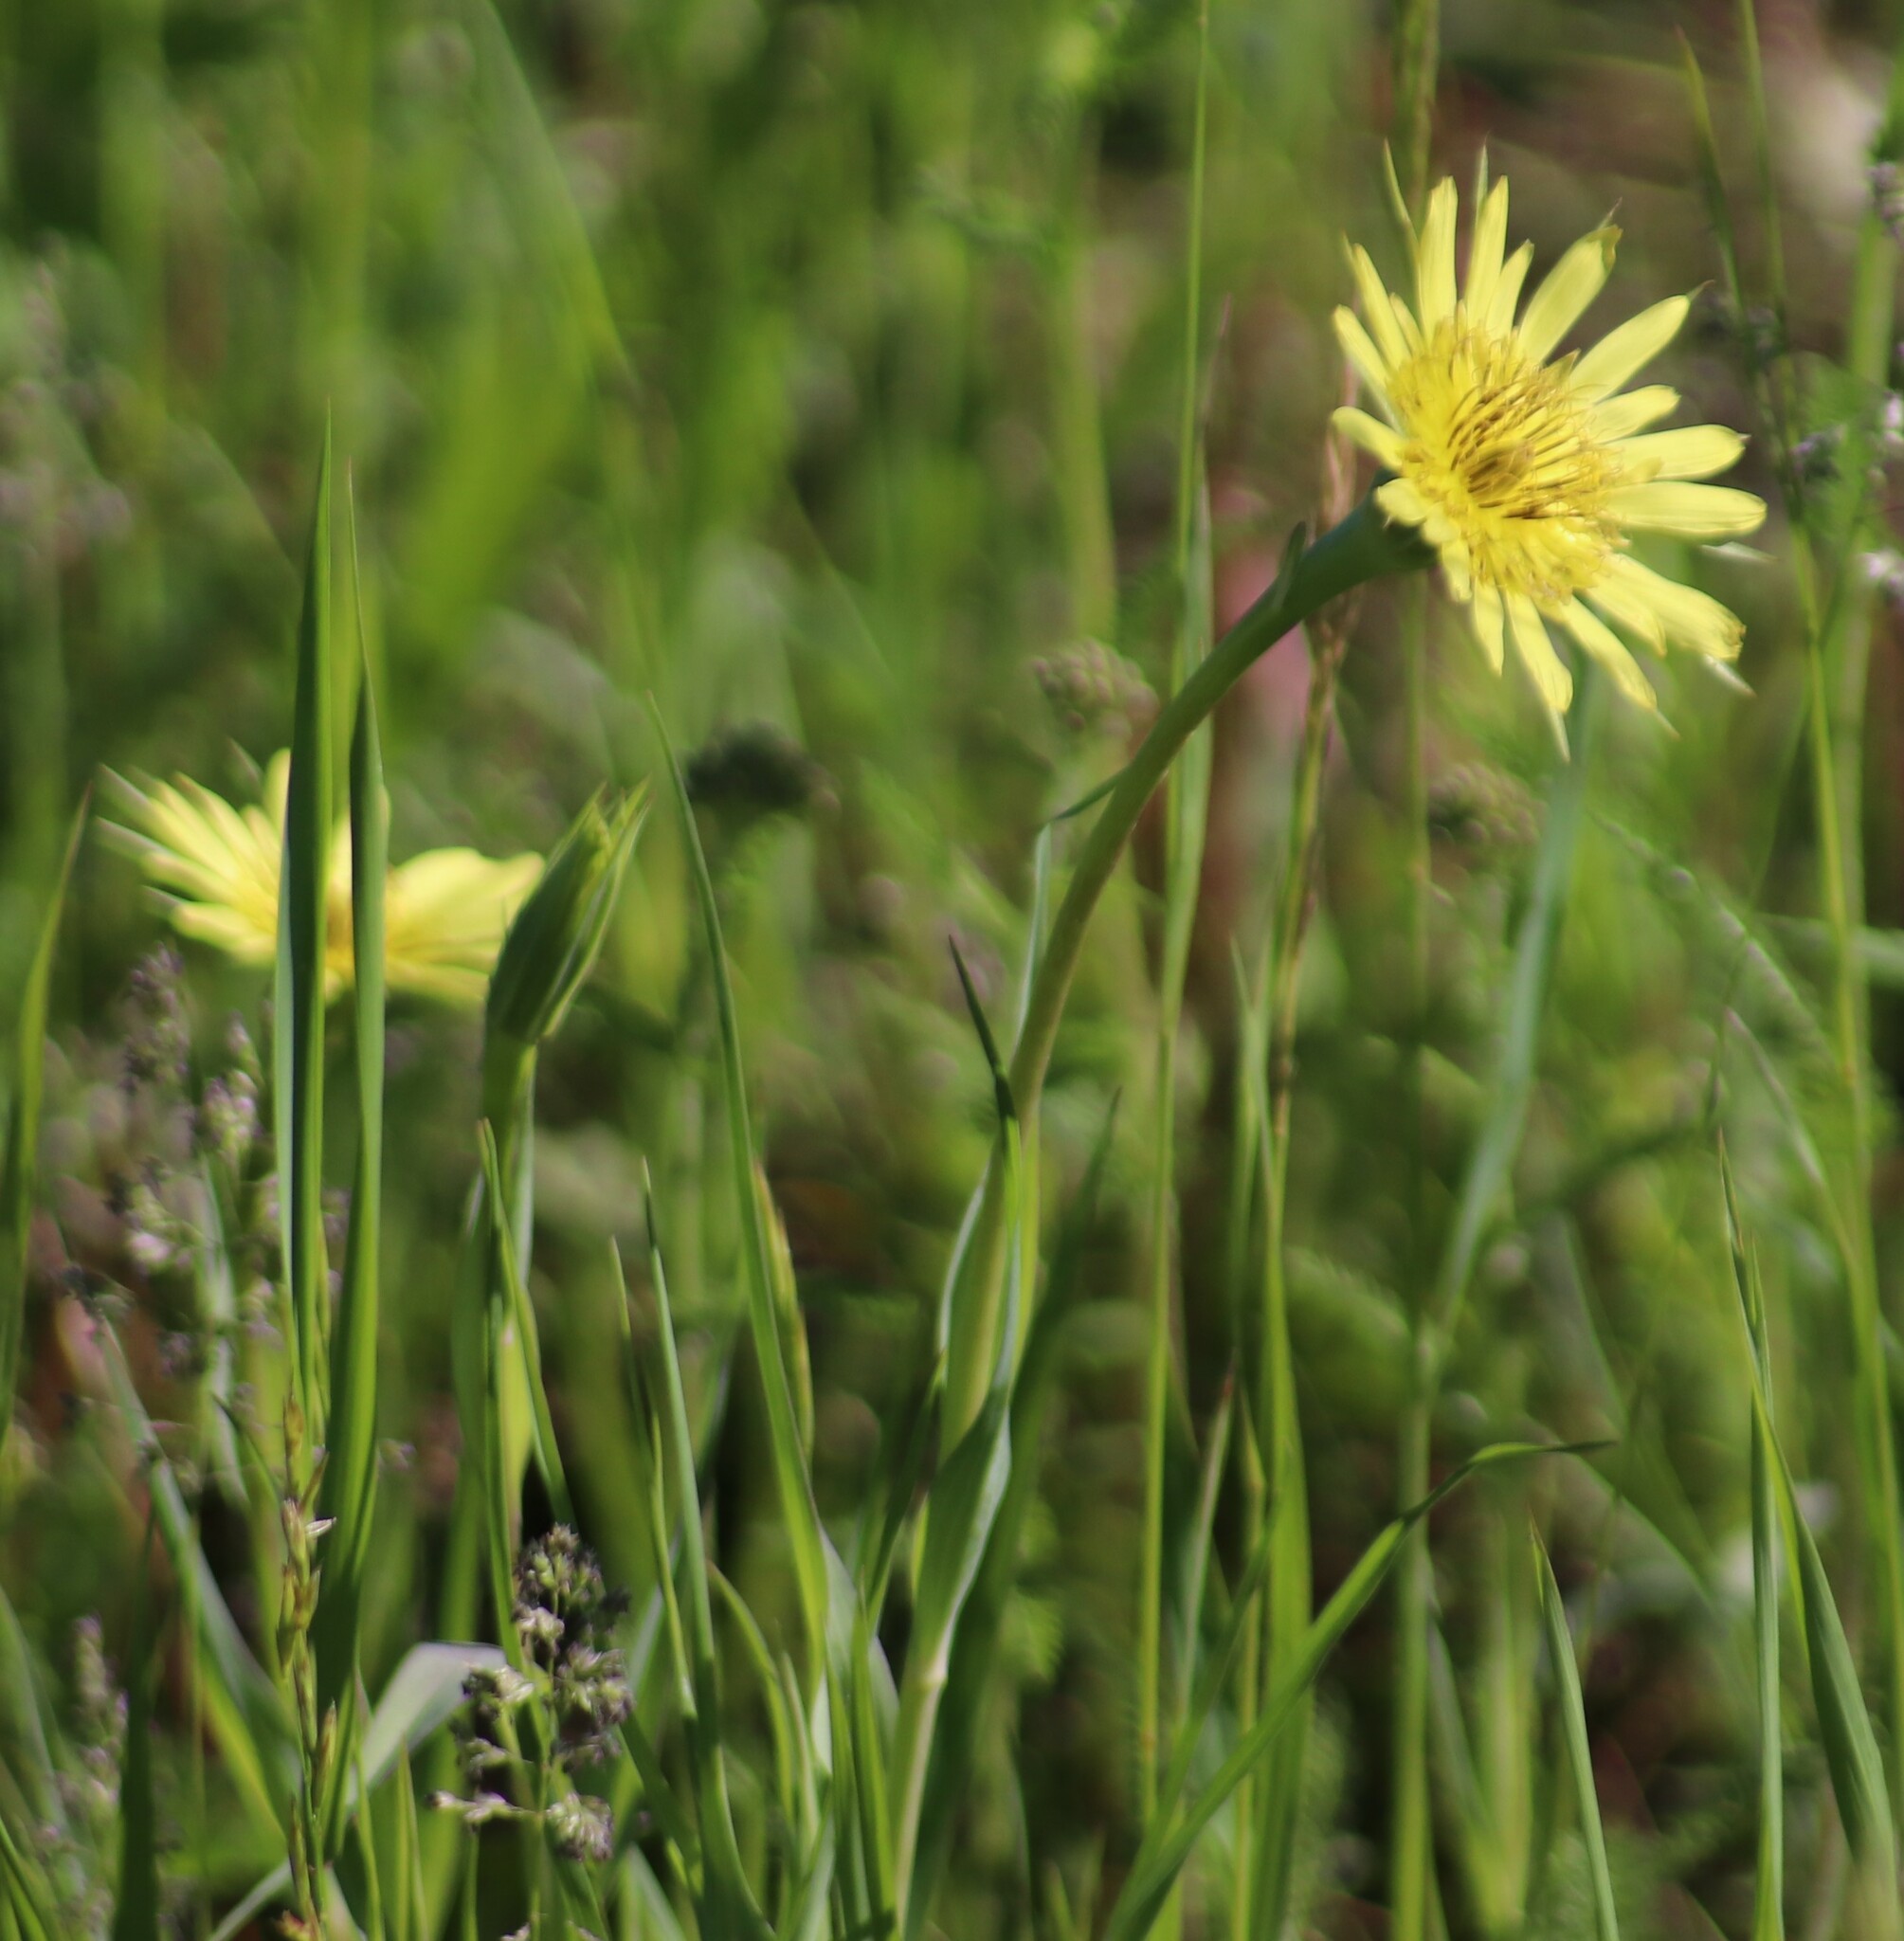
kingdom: Plantae
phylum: Tracheophyta
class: Magnoliopsida
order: Asterales
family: Asteraceae
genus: Tragopogon
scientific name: Tragopogon dubius
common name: Yellow salsify
